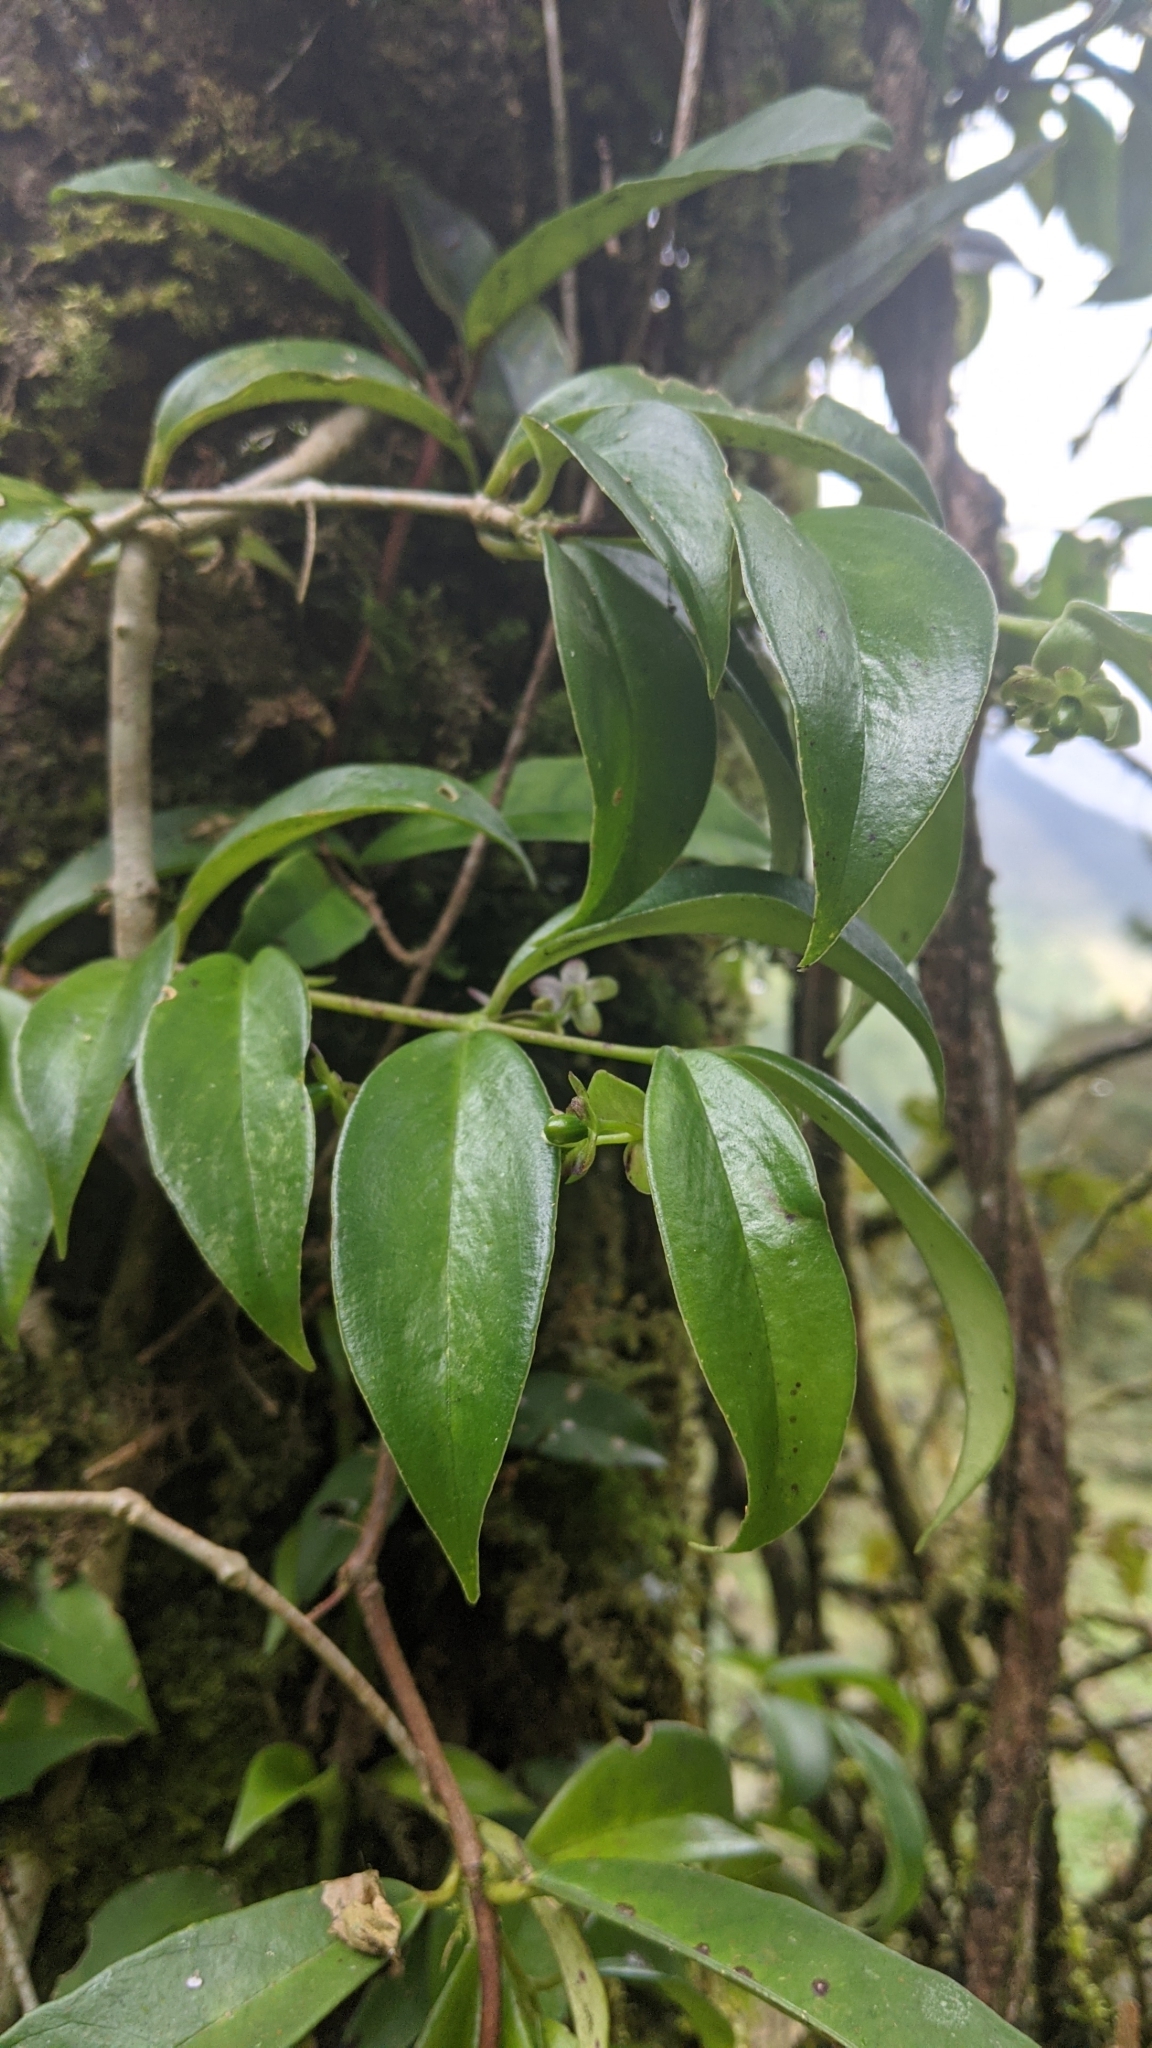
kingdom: Plantae
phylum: Tracheophyta
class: Magnoliopsida
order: Lamiales
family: Gesneriaceae
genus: Aeschynanthus
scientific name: Aeschynanthus acuminatus
